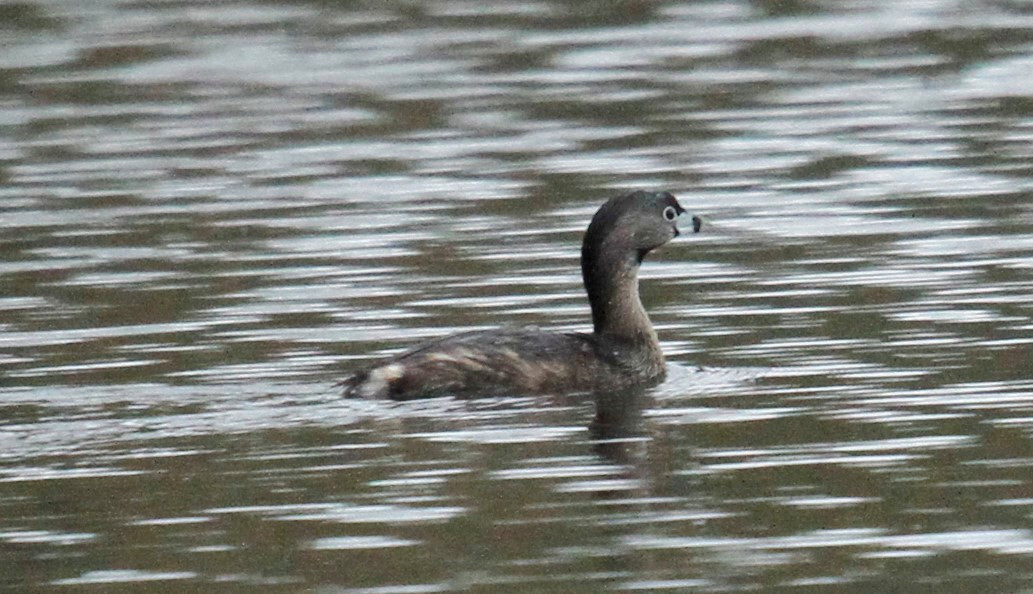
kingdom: Animalia
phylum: Chordata
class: Aves
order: Podicipediformes
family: Podicipedidae
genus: Podilymbus
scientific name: Podilymbus podiceps
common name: Pied-billed grebe
